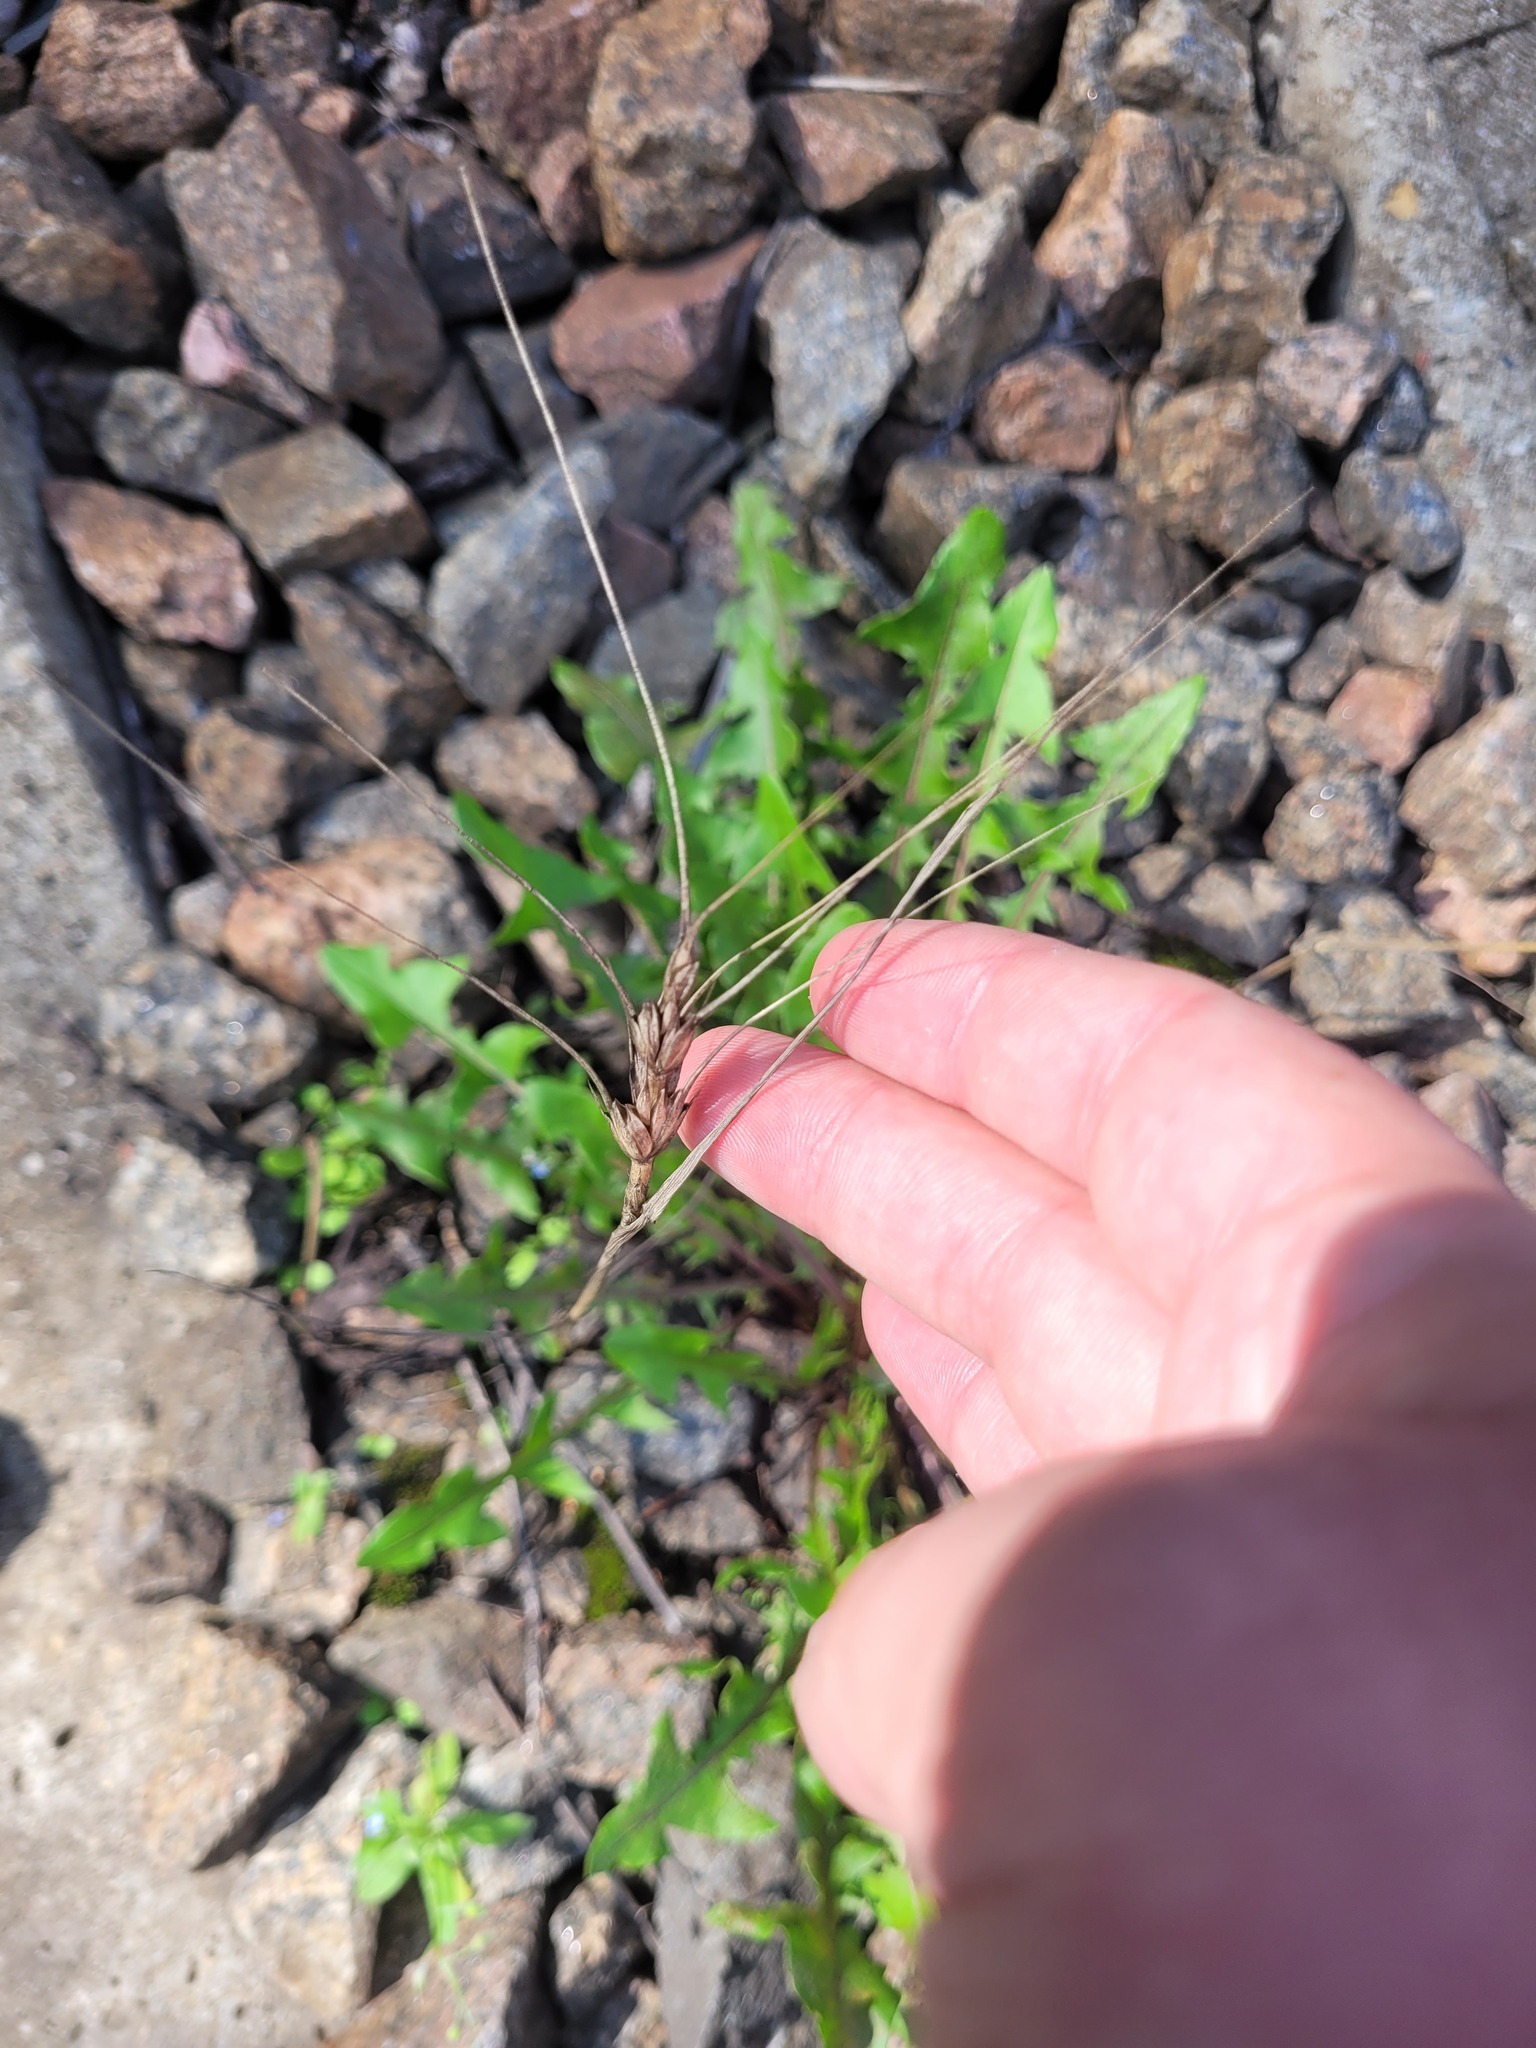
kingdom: Plantae
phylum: Tracheophyta
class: Liliopsida
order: Poales
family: Poaceae
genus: Triticum
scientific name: Triticum aestivum
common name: Common wheat
